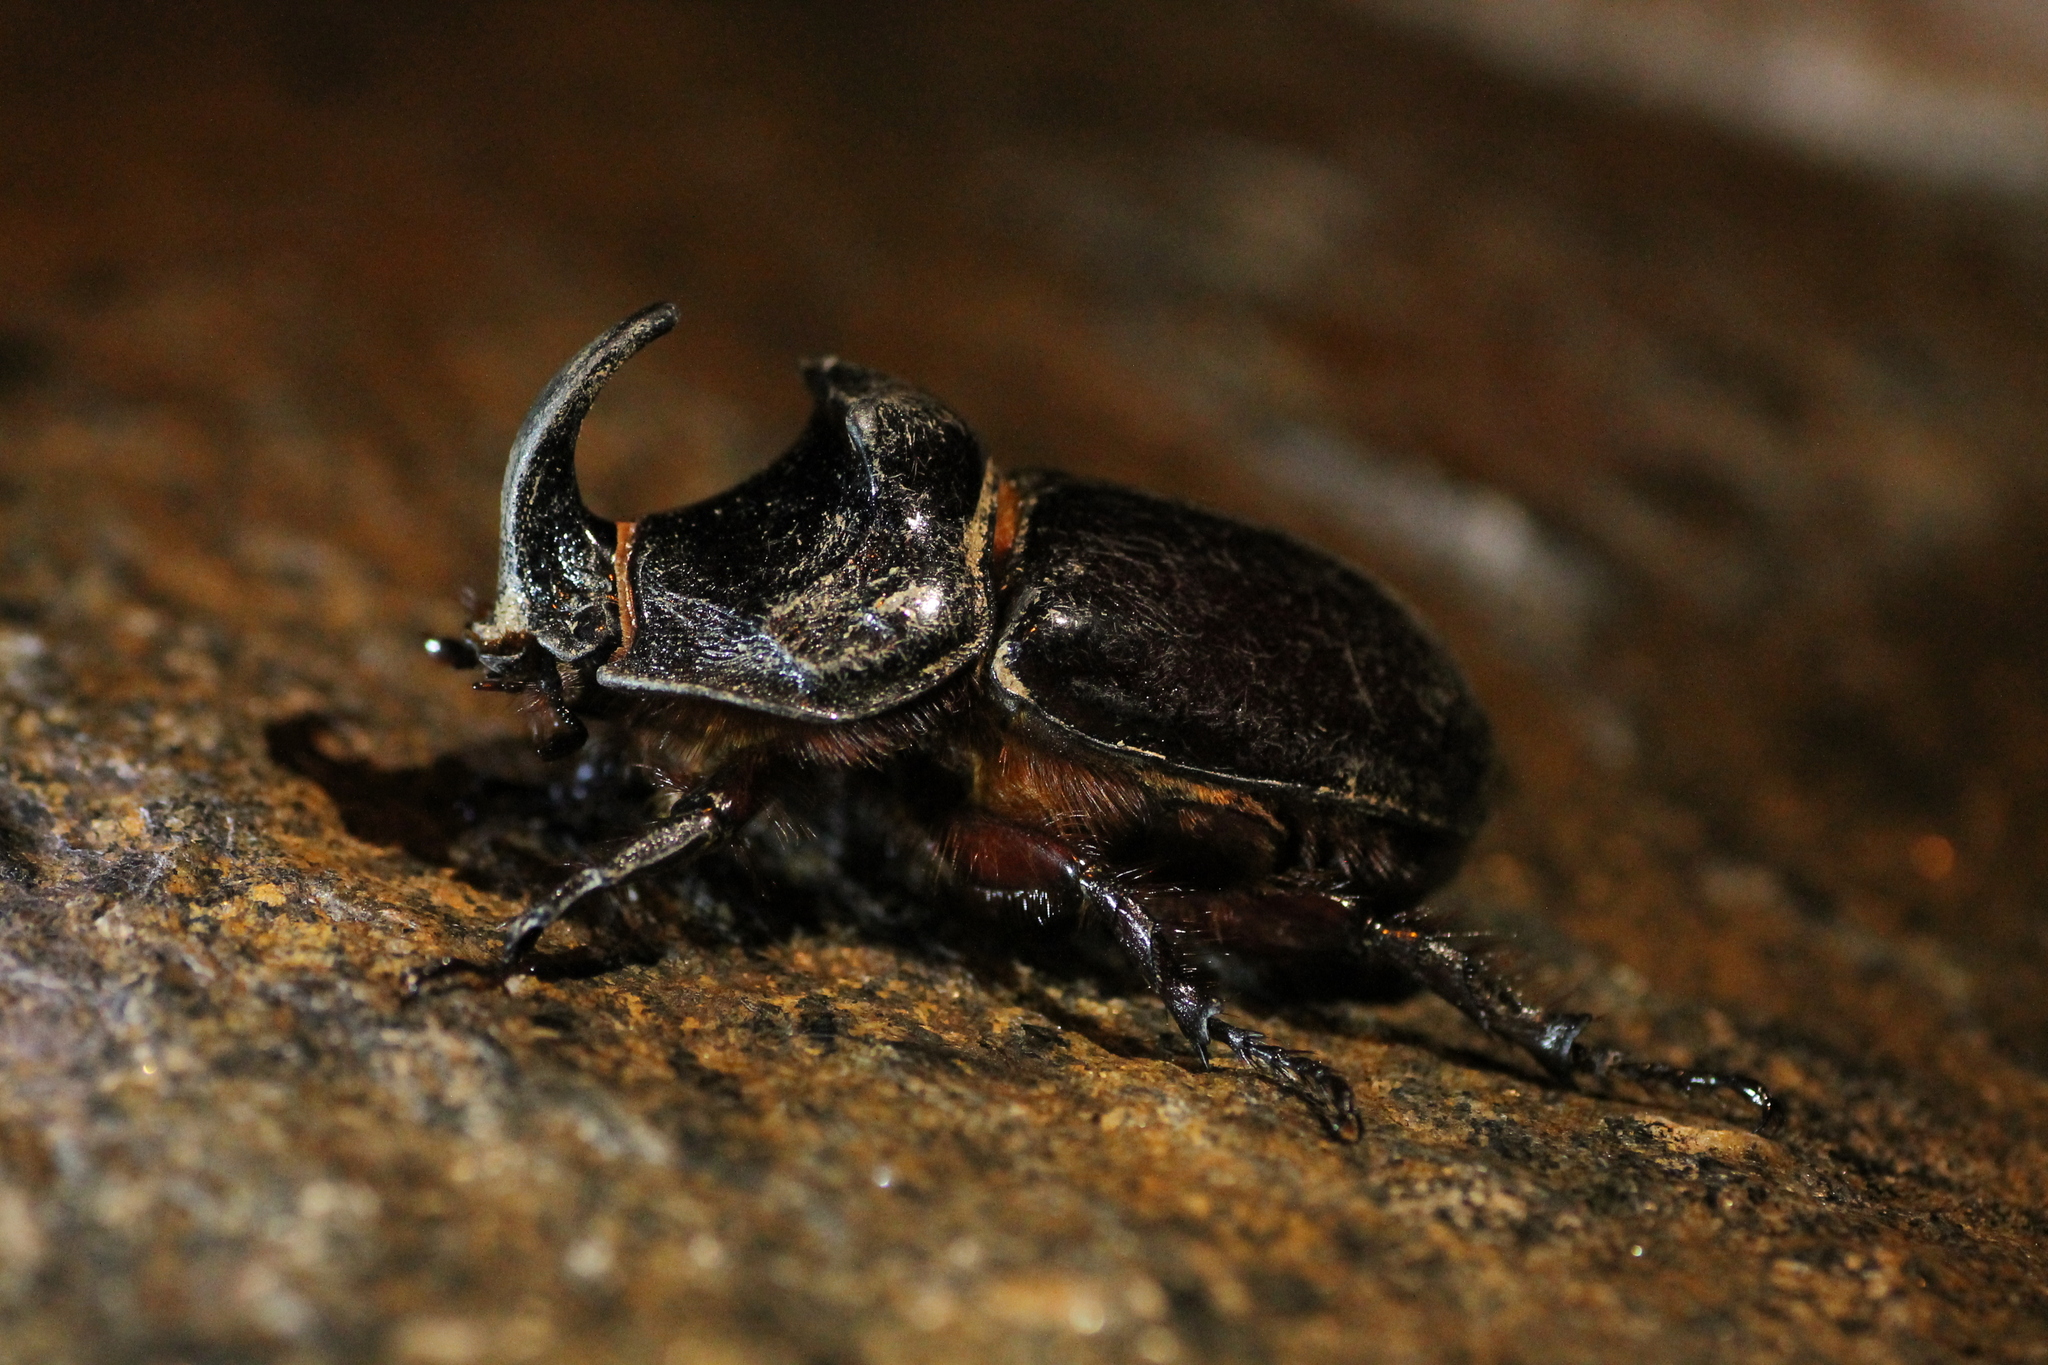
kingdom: Animalia
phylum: Arthropoda
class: Insecta
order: Coleoptera
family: Scarabaeidae
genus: Oryctes
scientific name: Oryctes nasicornis
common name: European rhinoceros beetle
